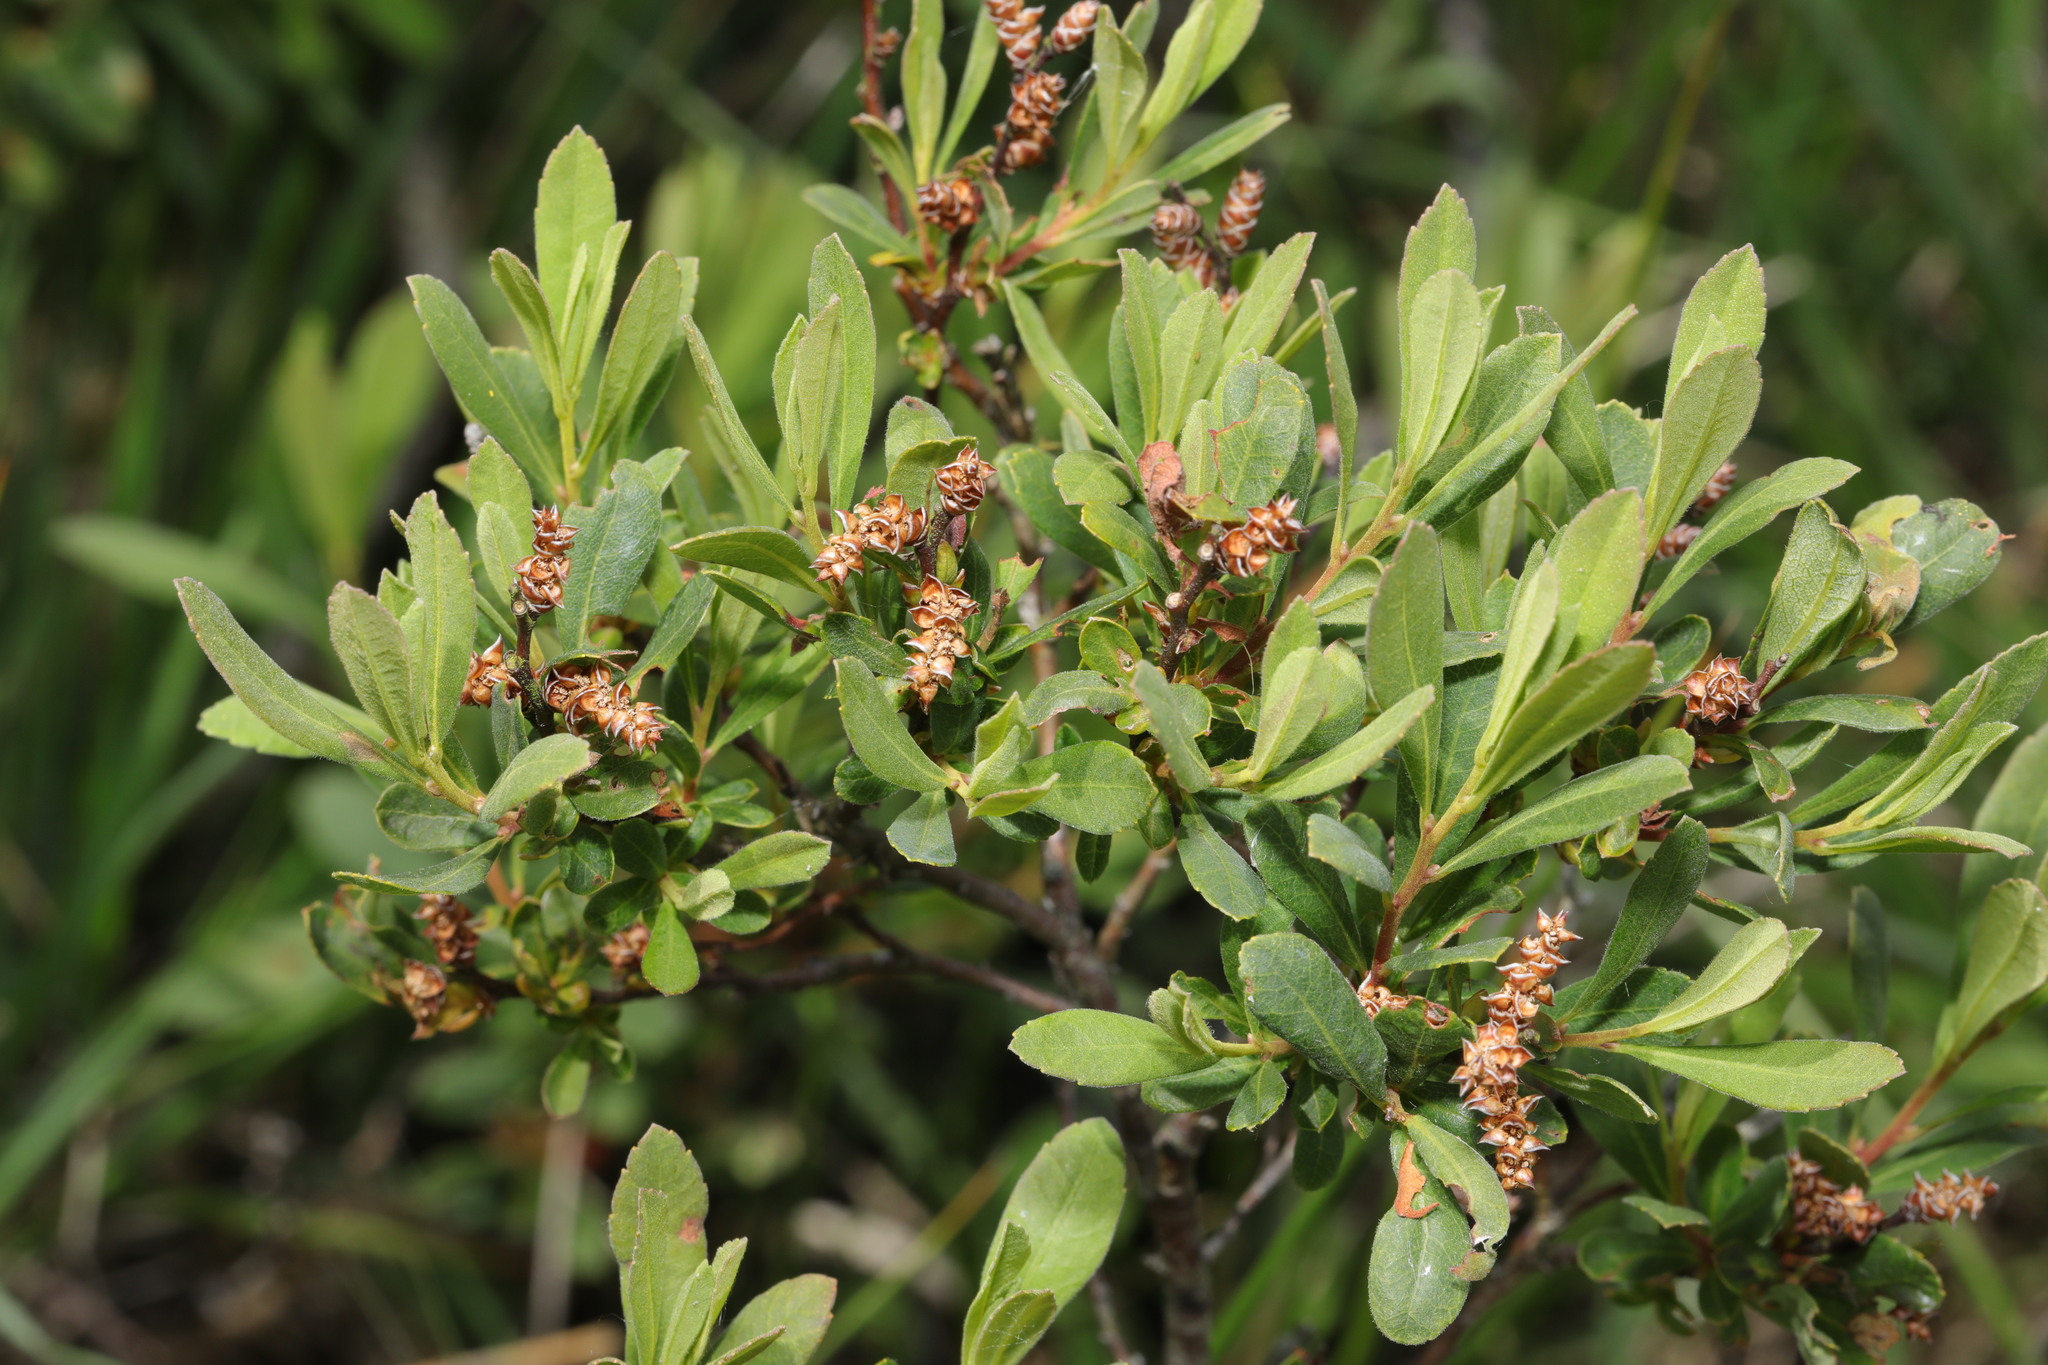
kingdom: Plantae
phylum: Tracheophyta
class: Magnoliopsida
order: Fagales
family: Myricaceae
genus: Myrica
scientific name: Myrica gale
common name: Sweet gale
